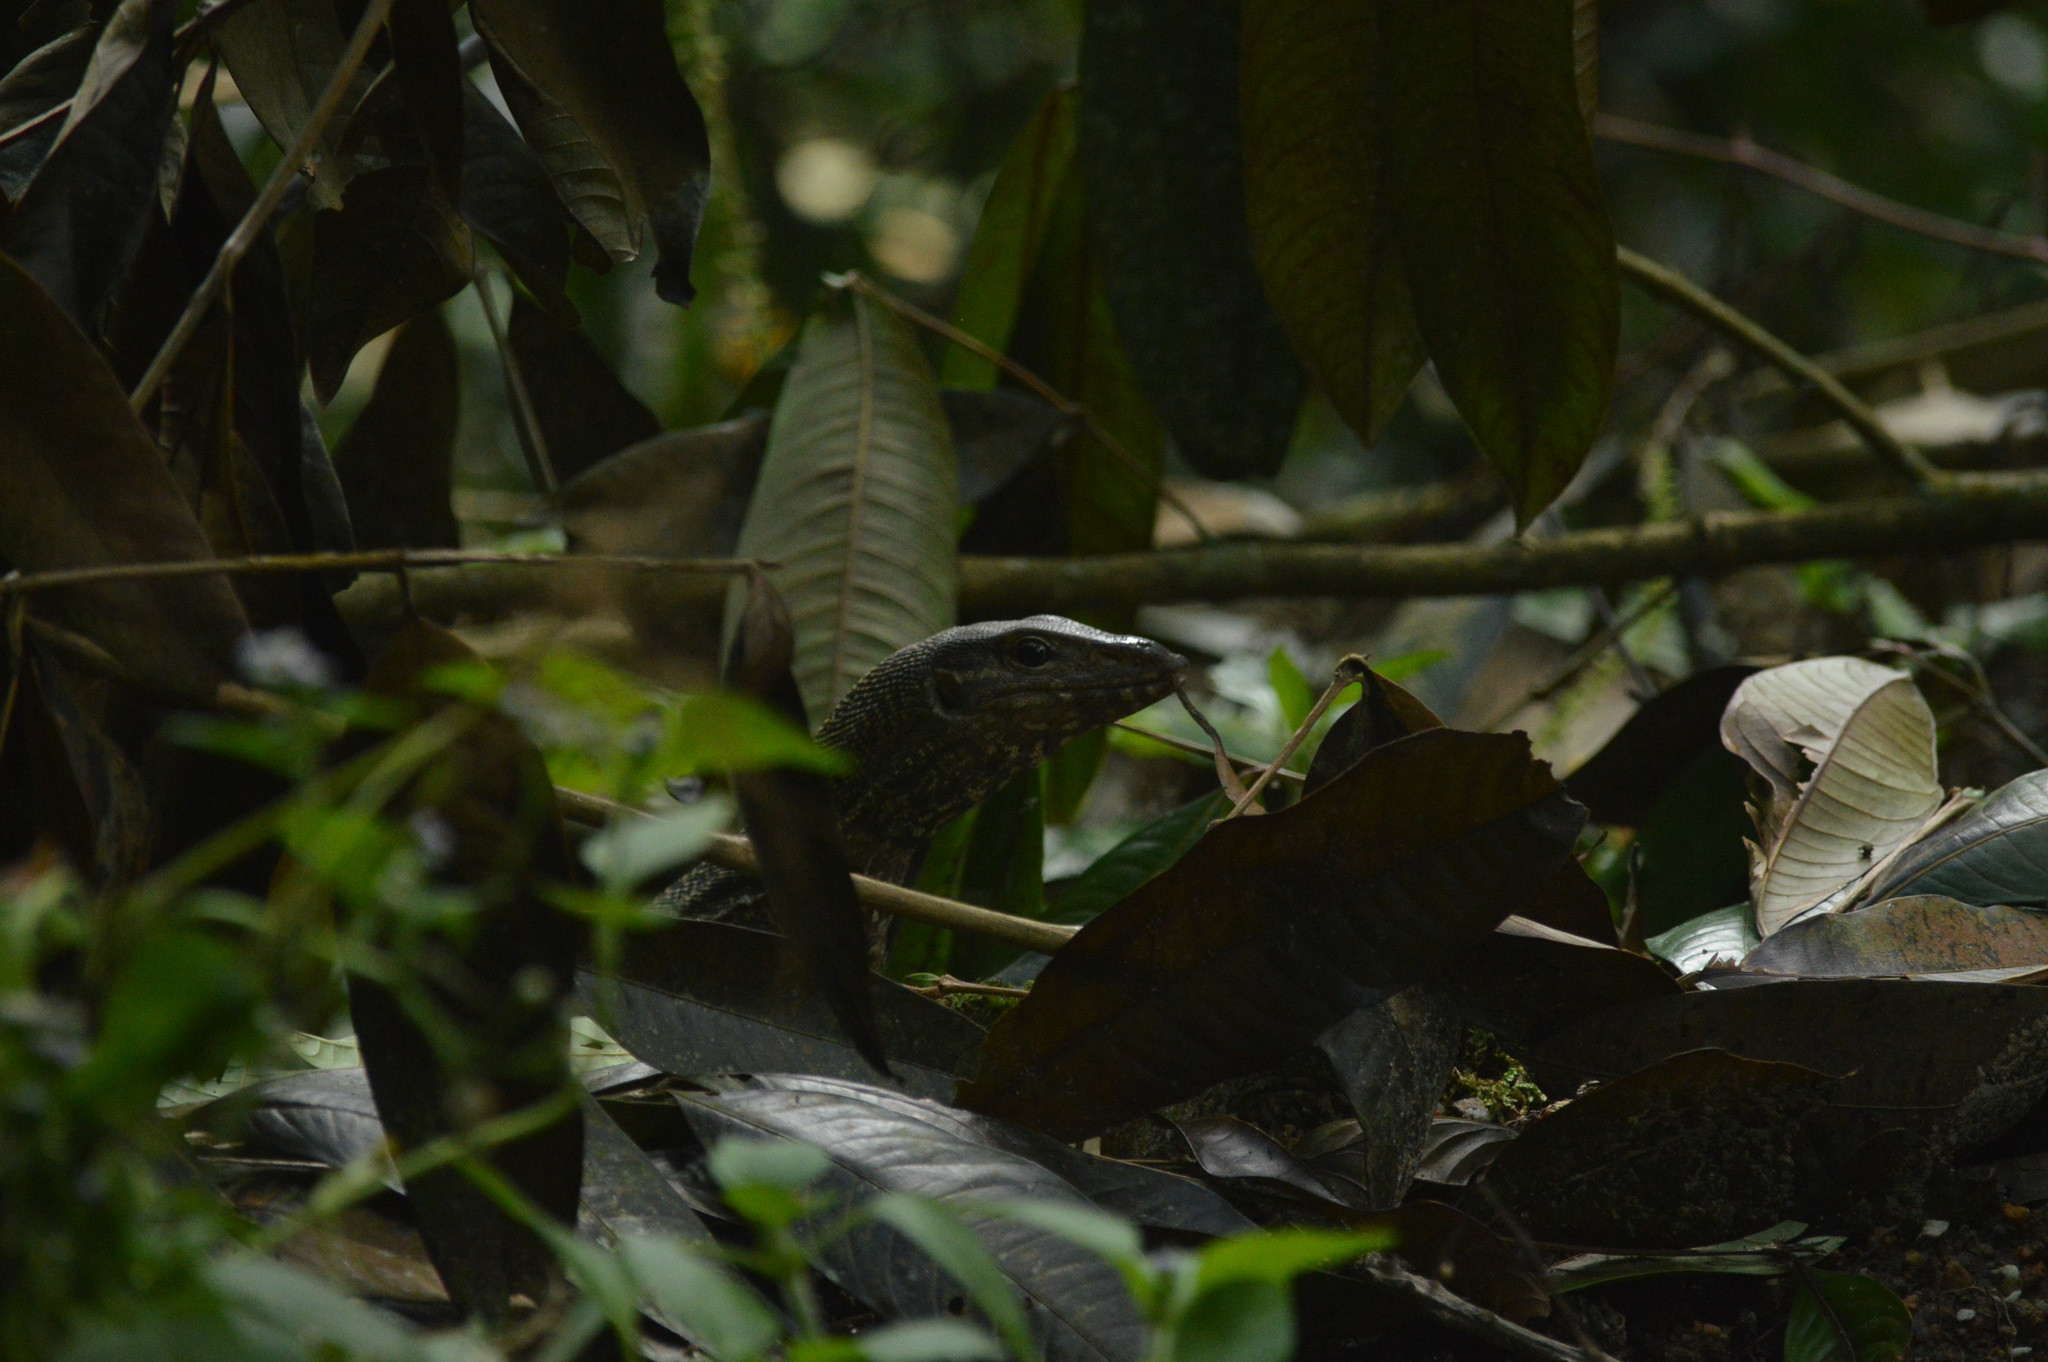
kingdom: Animalia
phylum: Chordata
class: Squamata
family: Varanidae
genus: Varanus
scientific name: Varanus nebulosus
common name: Clouded monitor
